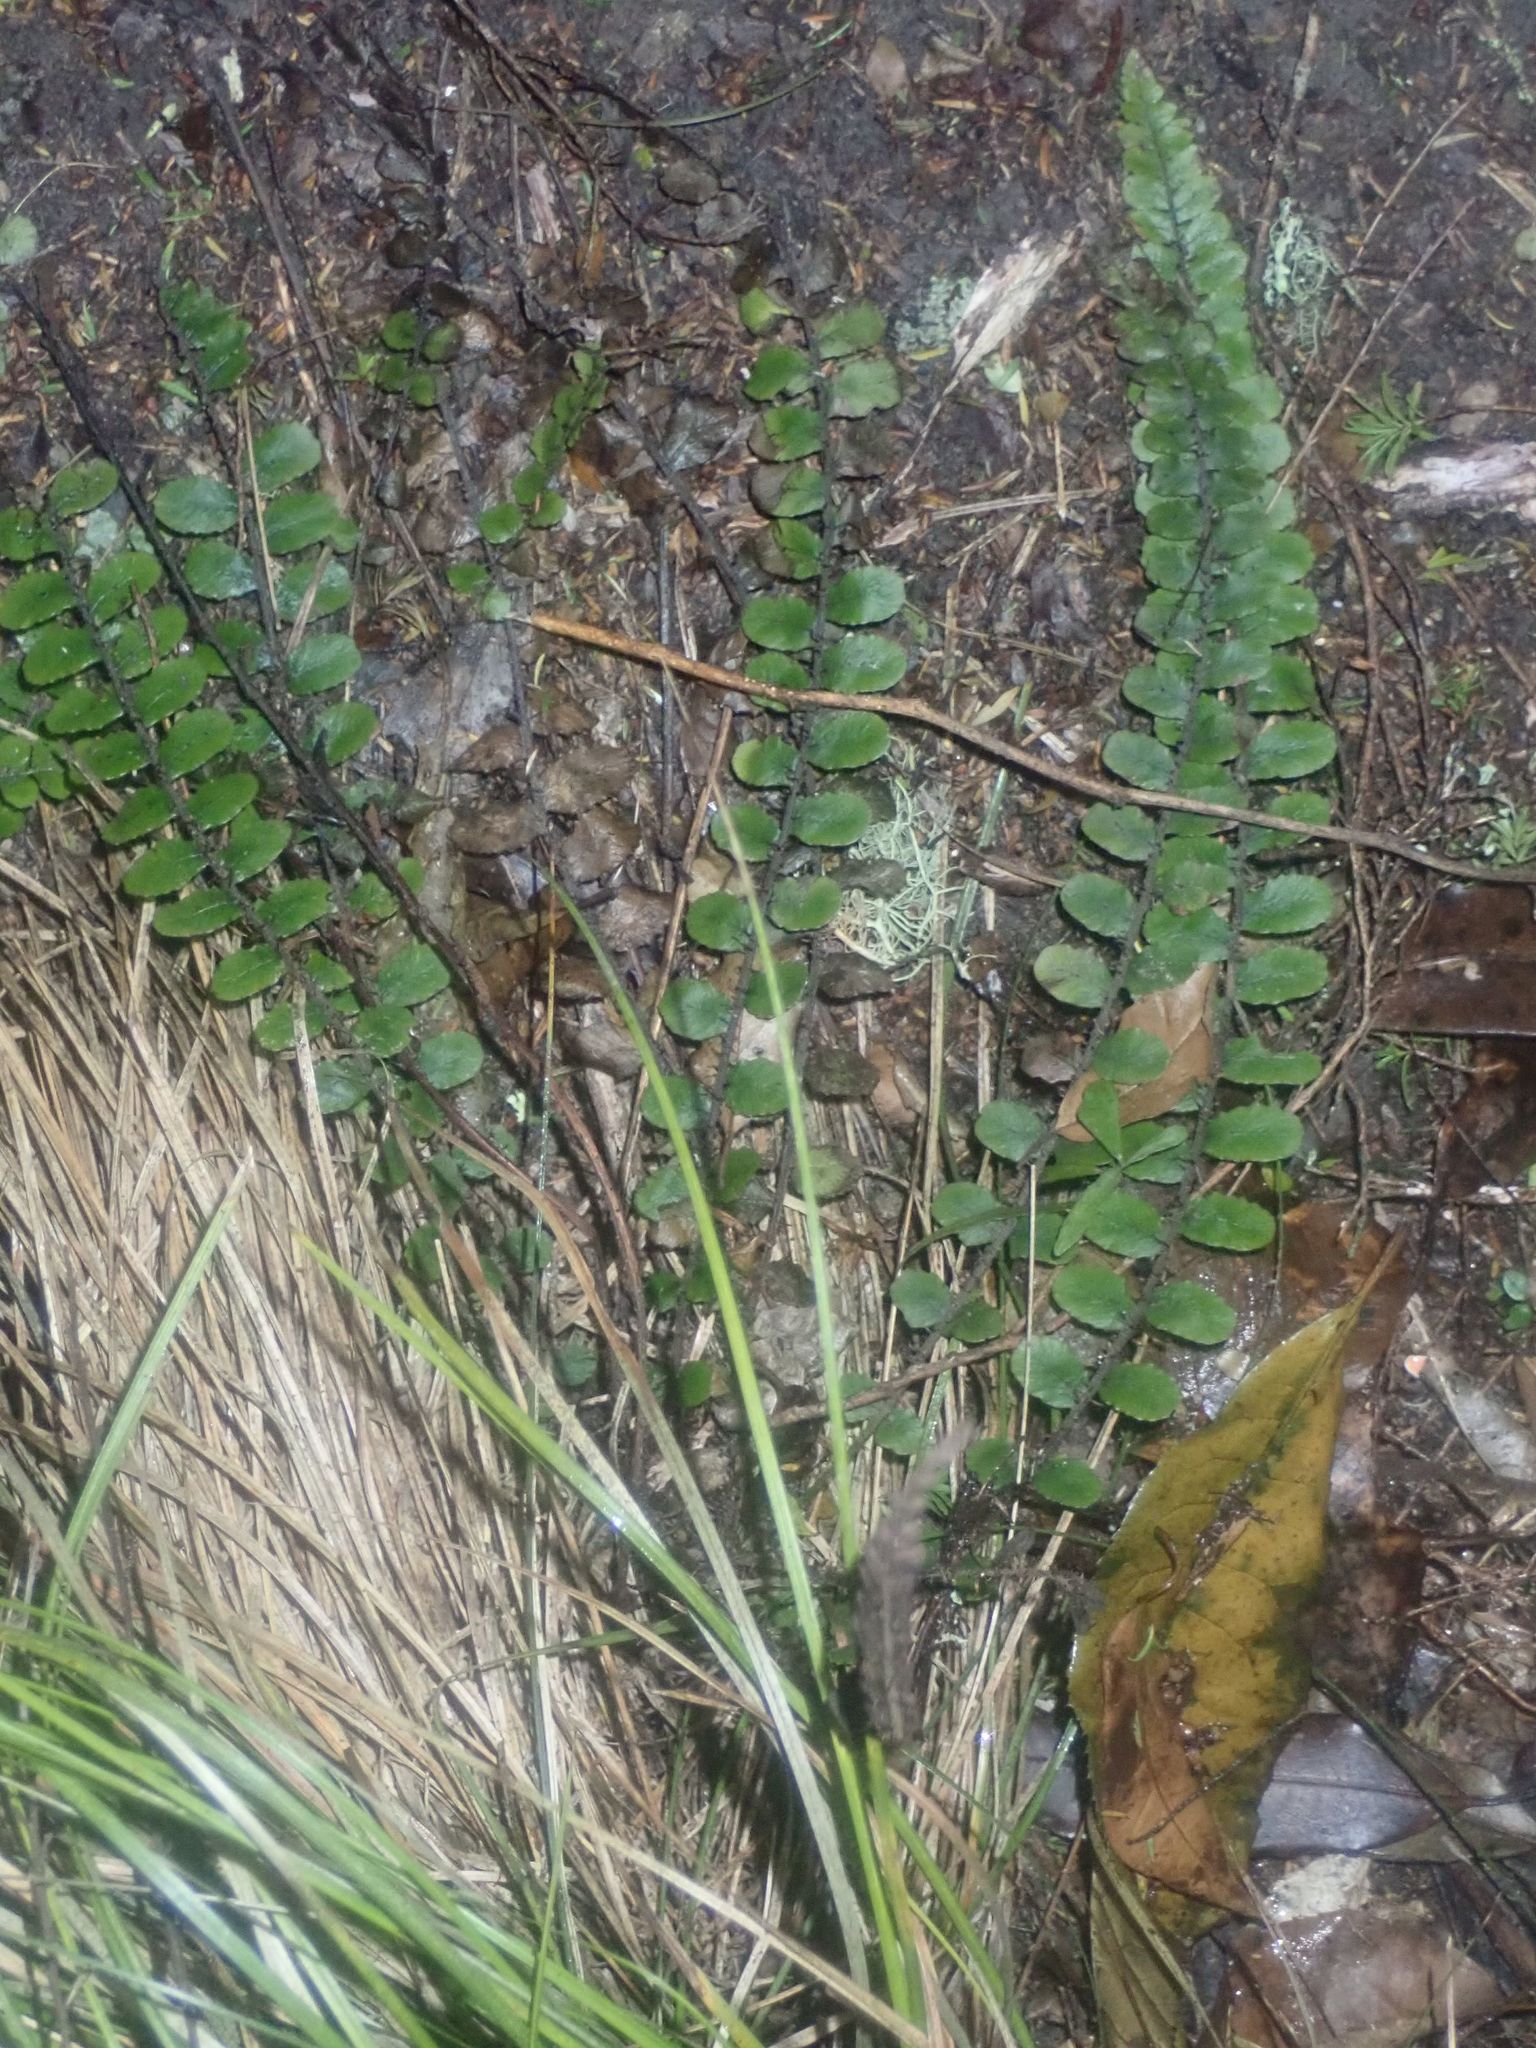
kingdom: Plantae
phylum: Tracheophyta
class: Polypodiopsida
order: Polypodiales
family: Blechnaceae
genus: Cranfillia
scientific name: Cranfillia fluviatilis
